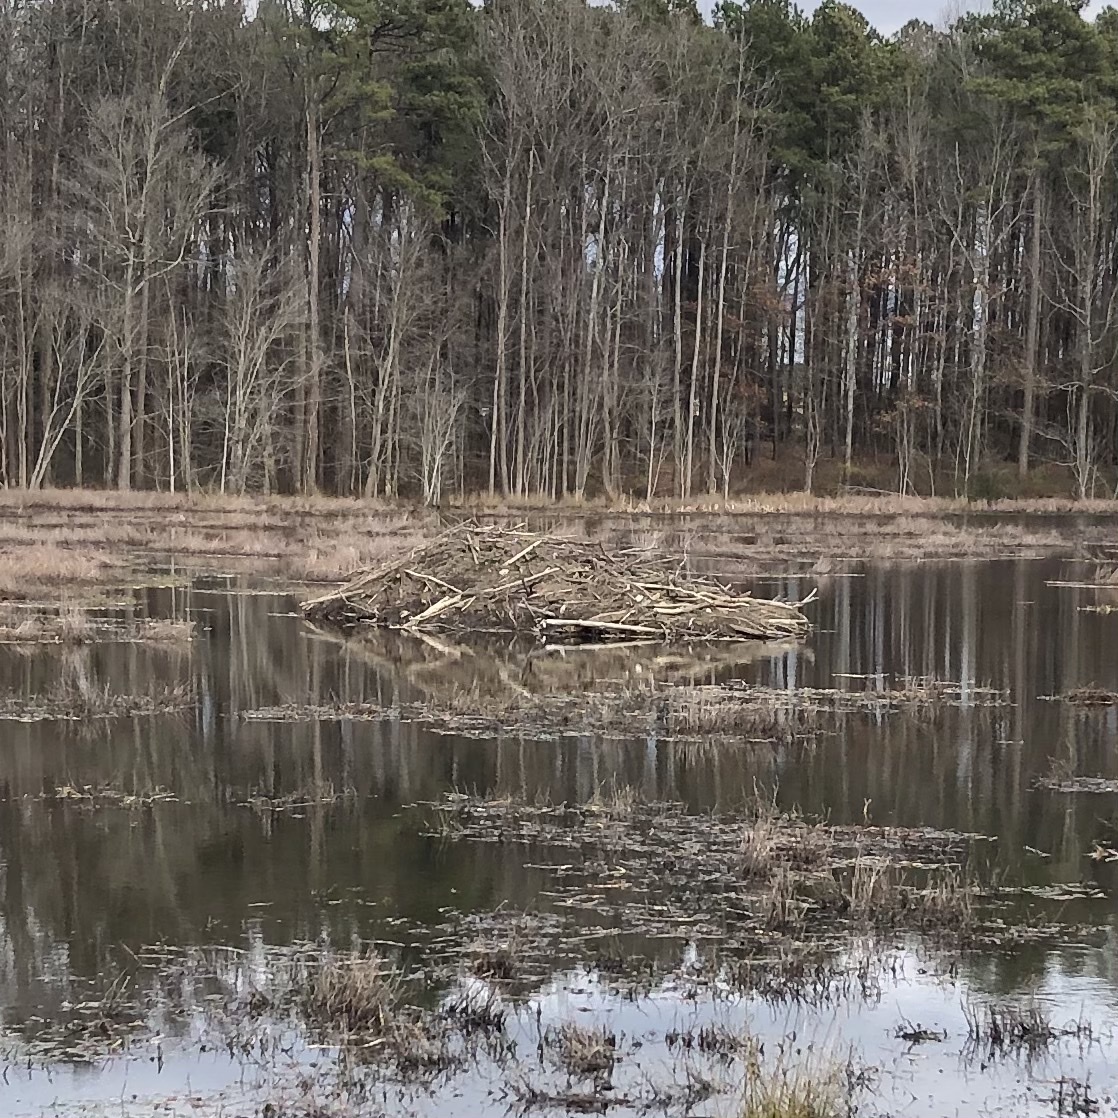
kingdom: Animalia
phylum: Chordata
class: Mammalia
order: Rodentia
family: Castoridae
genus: Castor
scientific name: Castor canadensis
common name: American beaver
